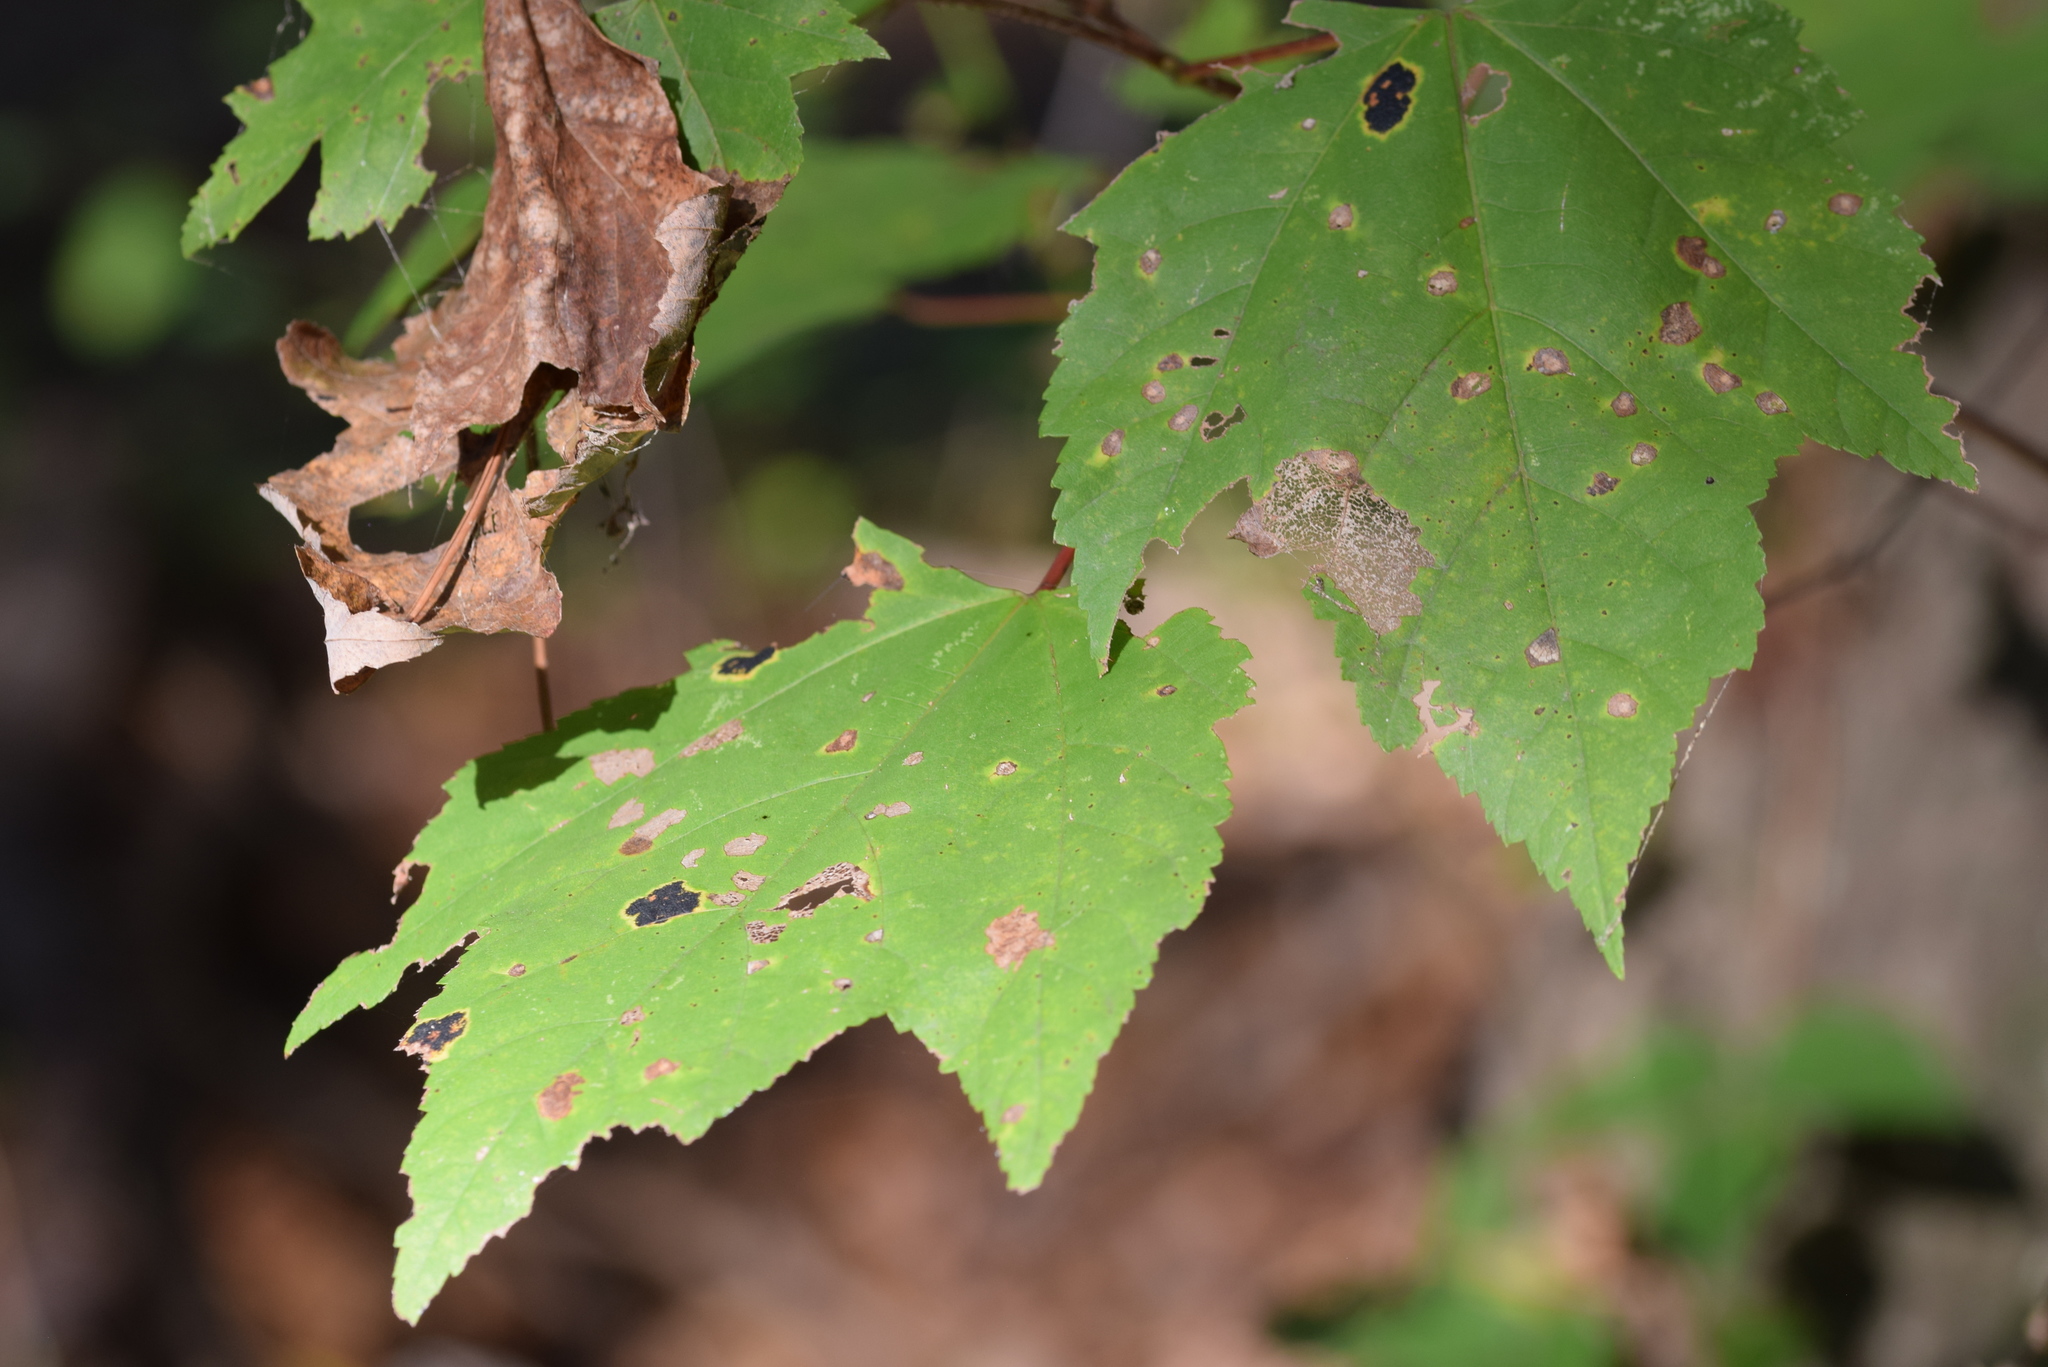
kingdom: Plantae
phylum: Tracheophyta
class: Magnoliopsida
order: Sapindales
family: Sapindaceae
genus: Acer
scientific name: Acer rubrum
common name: Red maple
